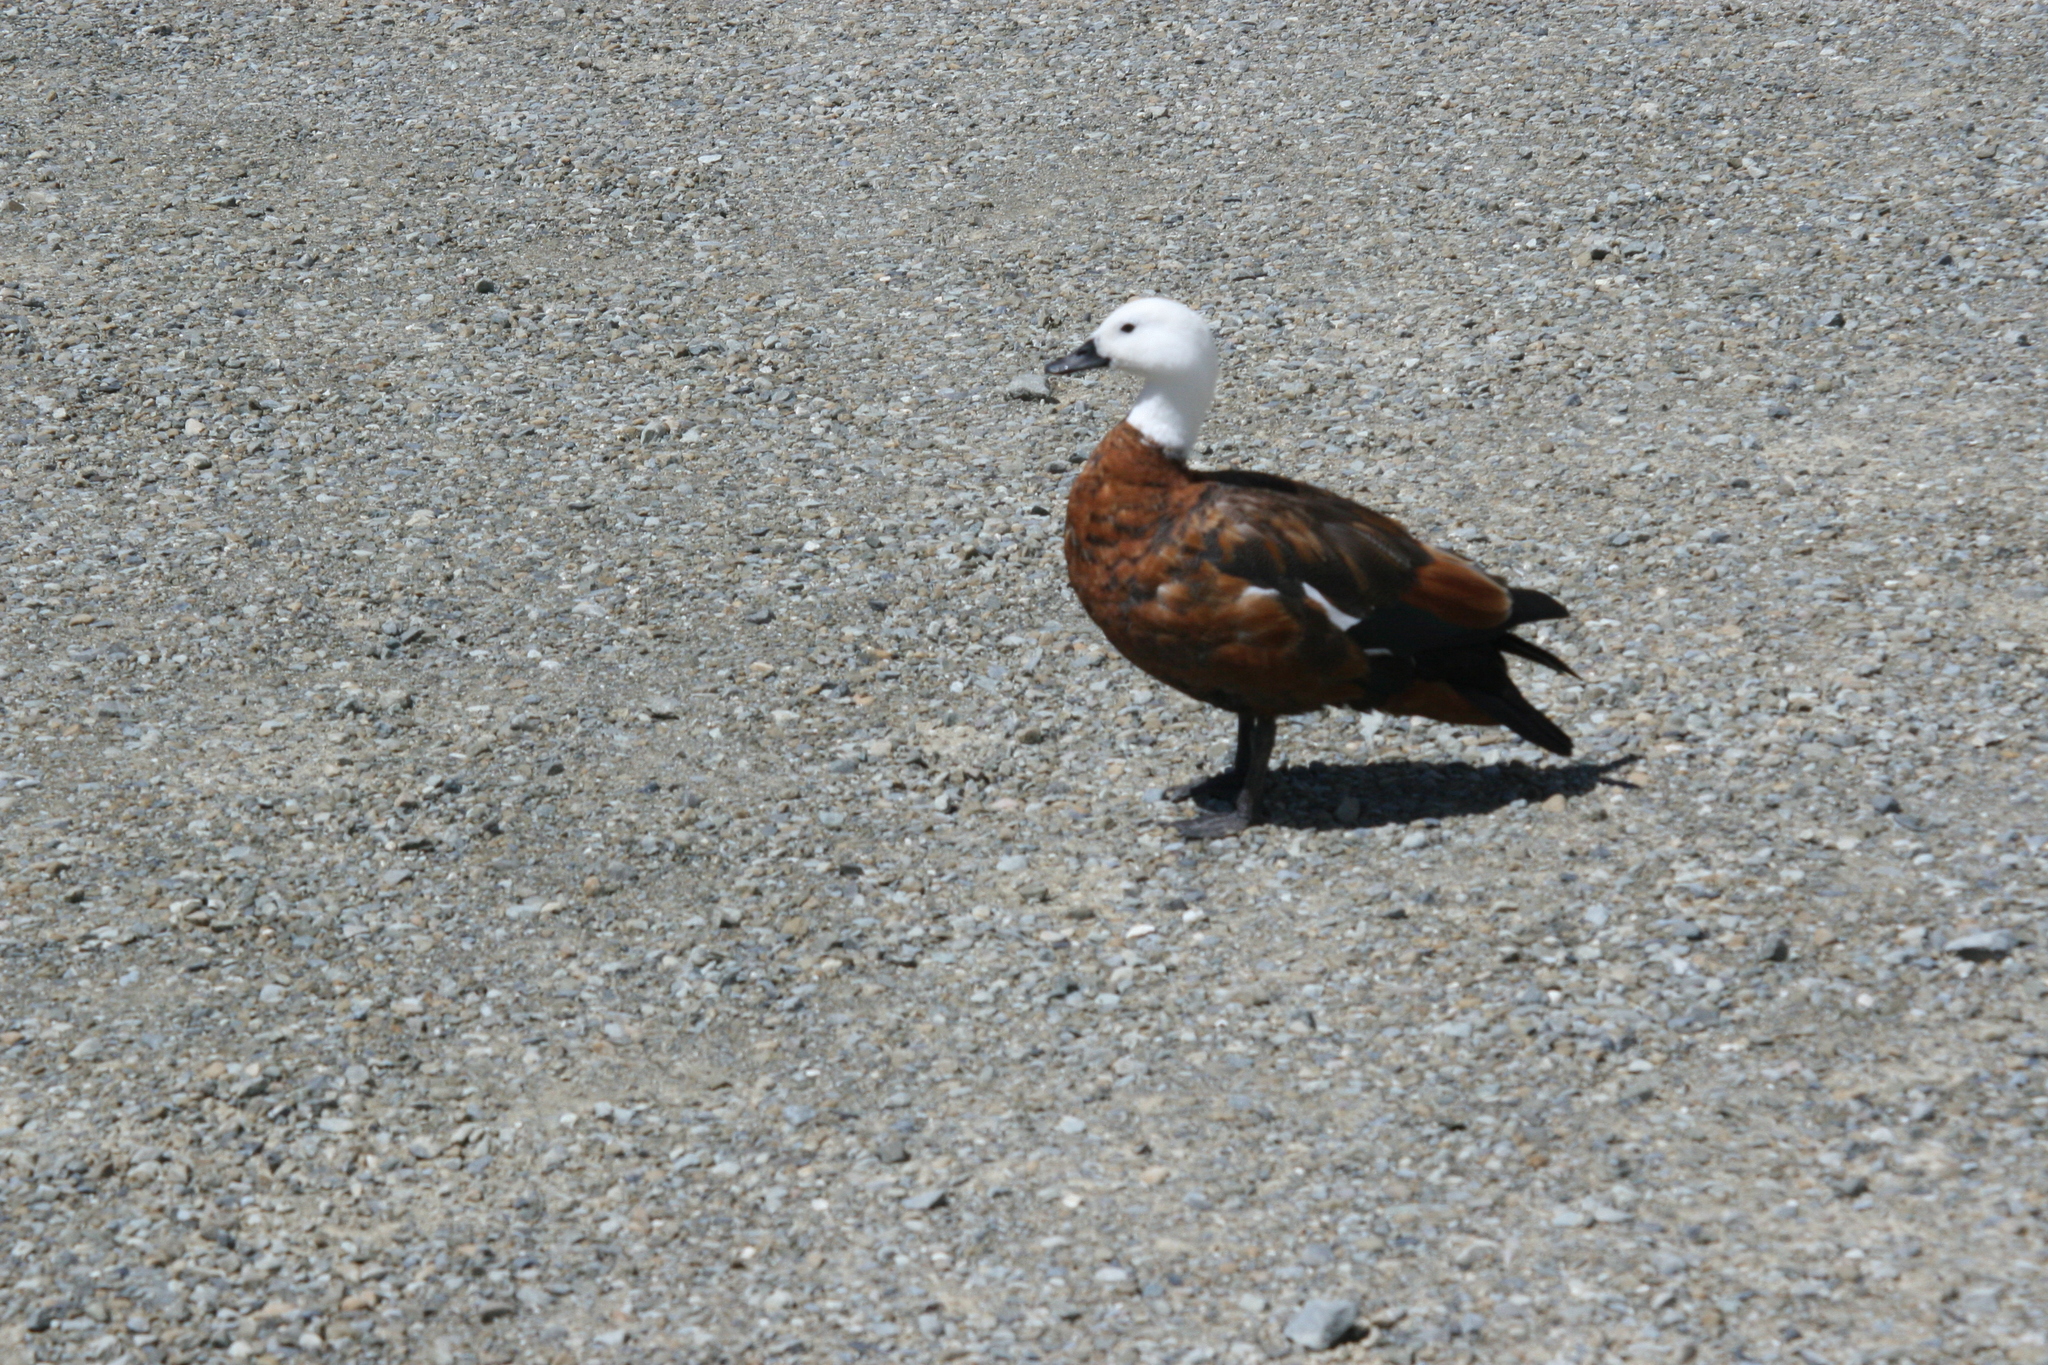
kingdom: Animalia
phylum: Chordata
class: Aves
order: Anseriformes
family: Anatidae
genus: Tadorna
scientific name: Tadorna variegata
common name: Paradise shelduck
